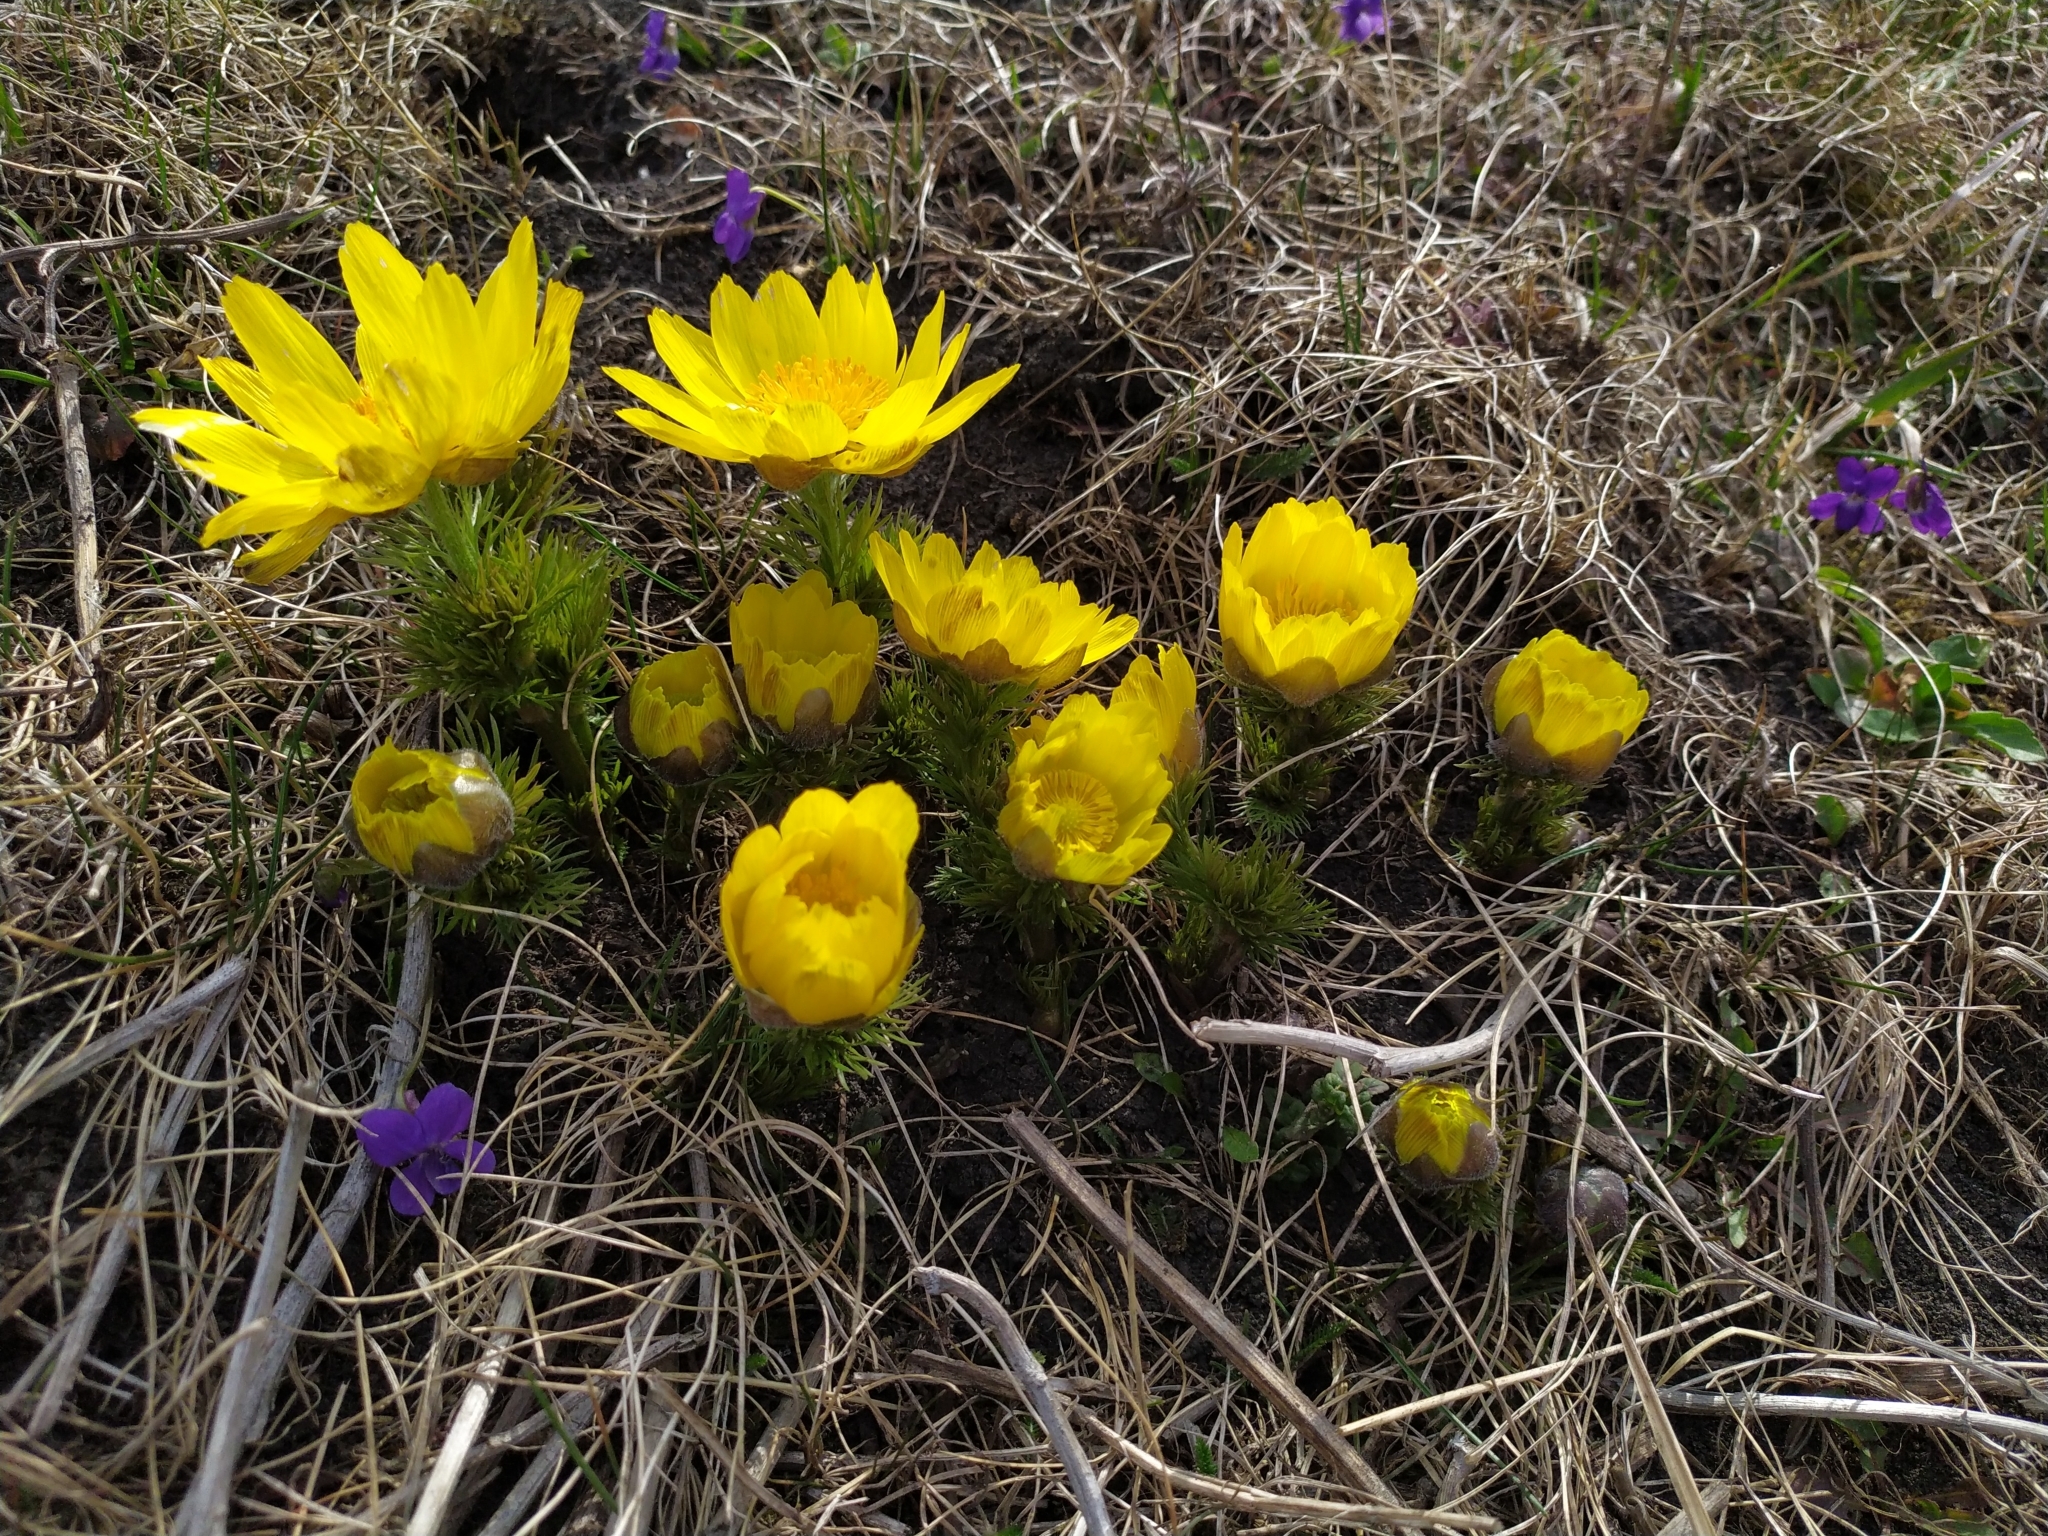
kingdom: Plantae
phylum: Tracheophyta
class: Magnoliopsida
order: Ranunculales
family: Ranunculaceae
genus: Adonis
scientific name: Adonis vernalis
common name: Yellow pheasants-eye
